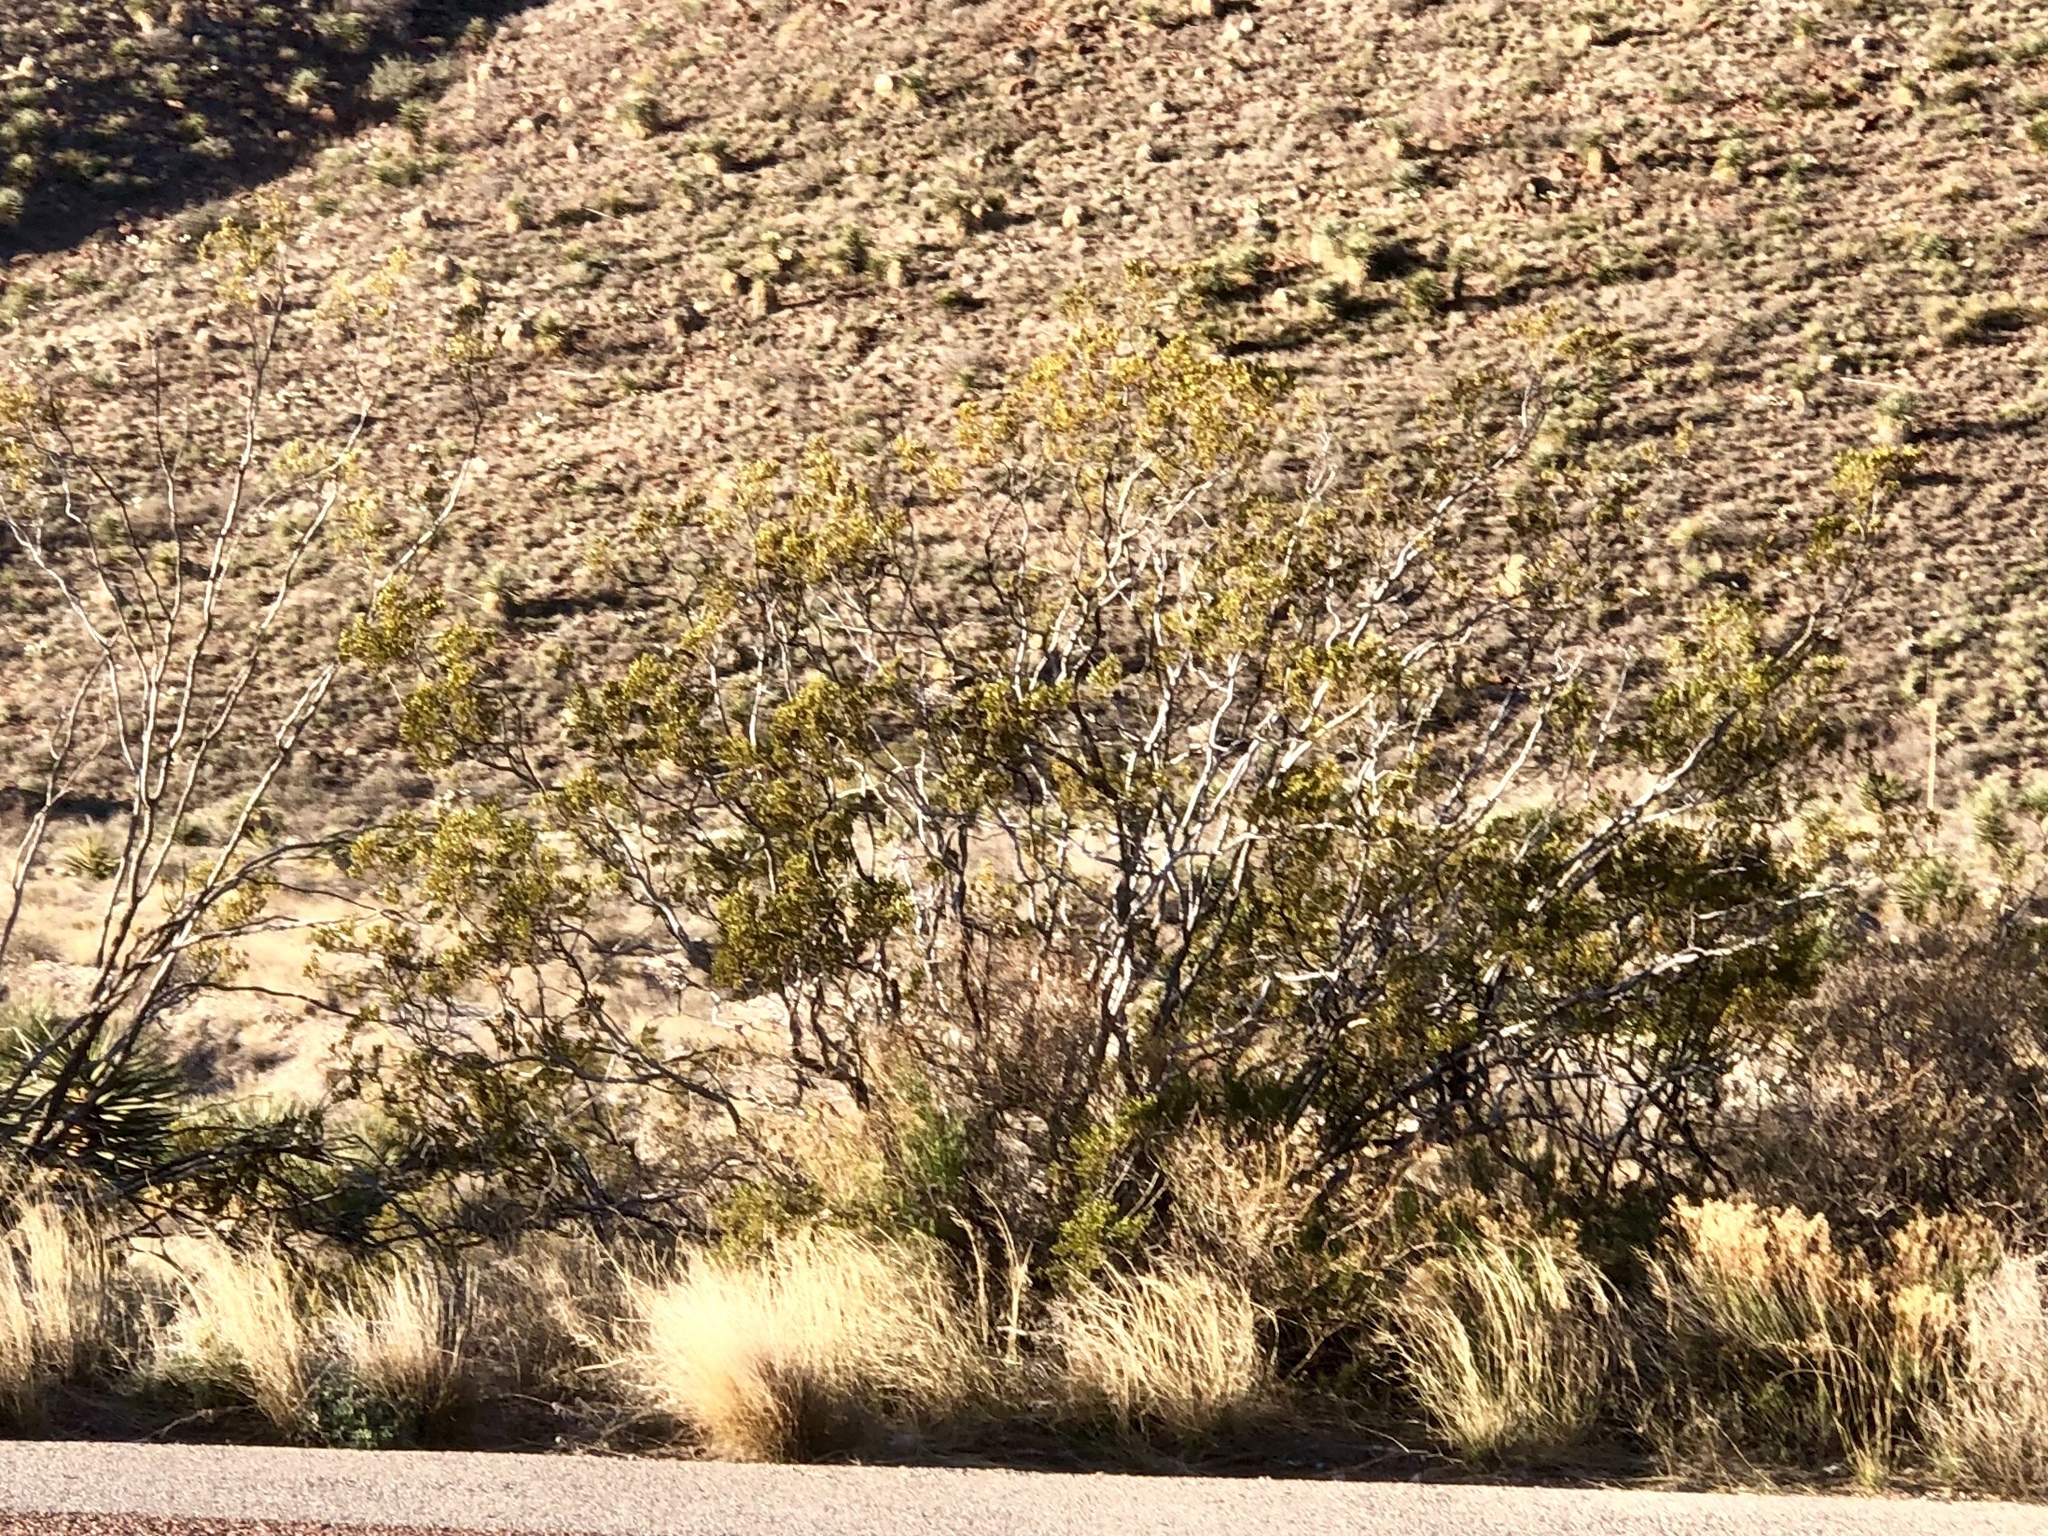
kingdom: Plantae
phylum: Tracheophyta
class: Magnoliopsida
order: Zygophyllales
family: Zygophyllaceae
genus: Larrea
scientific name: Larrea tridentata
